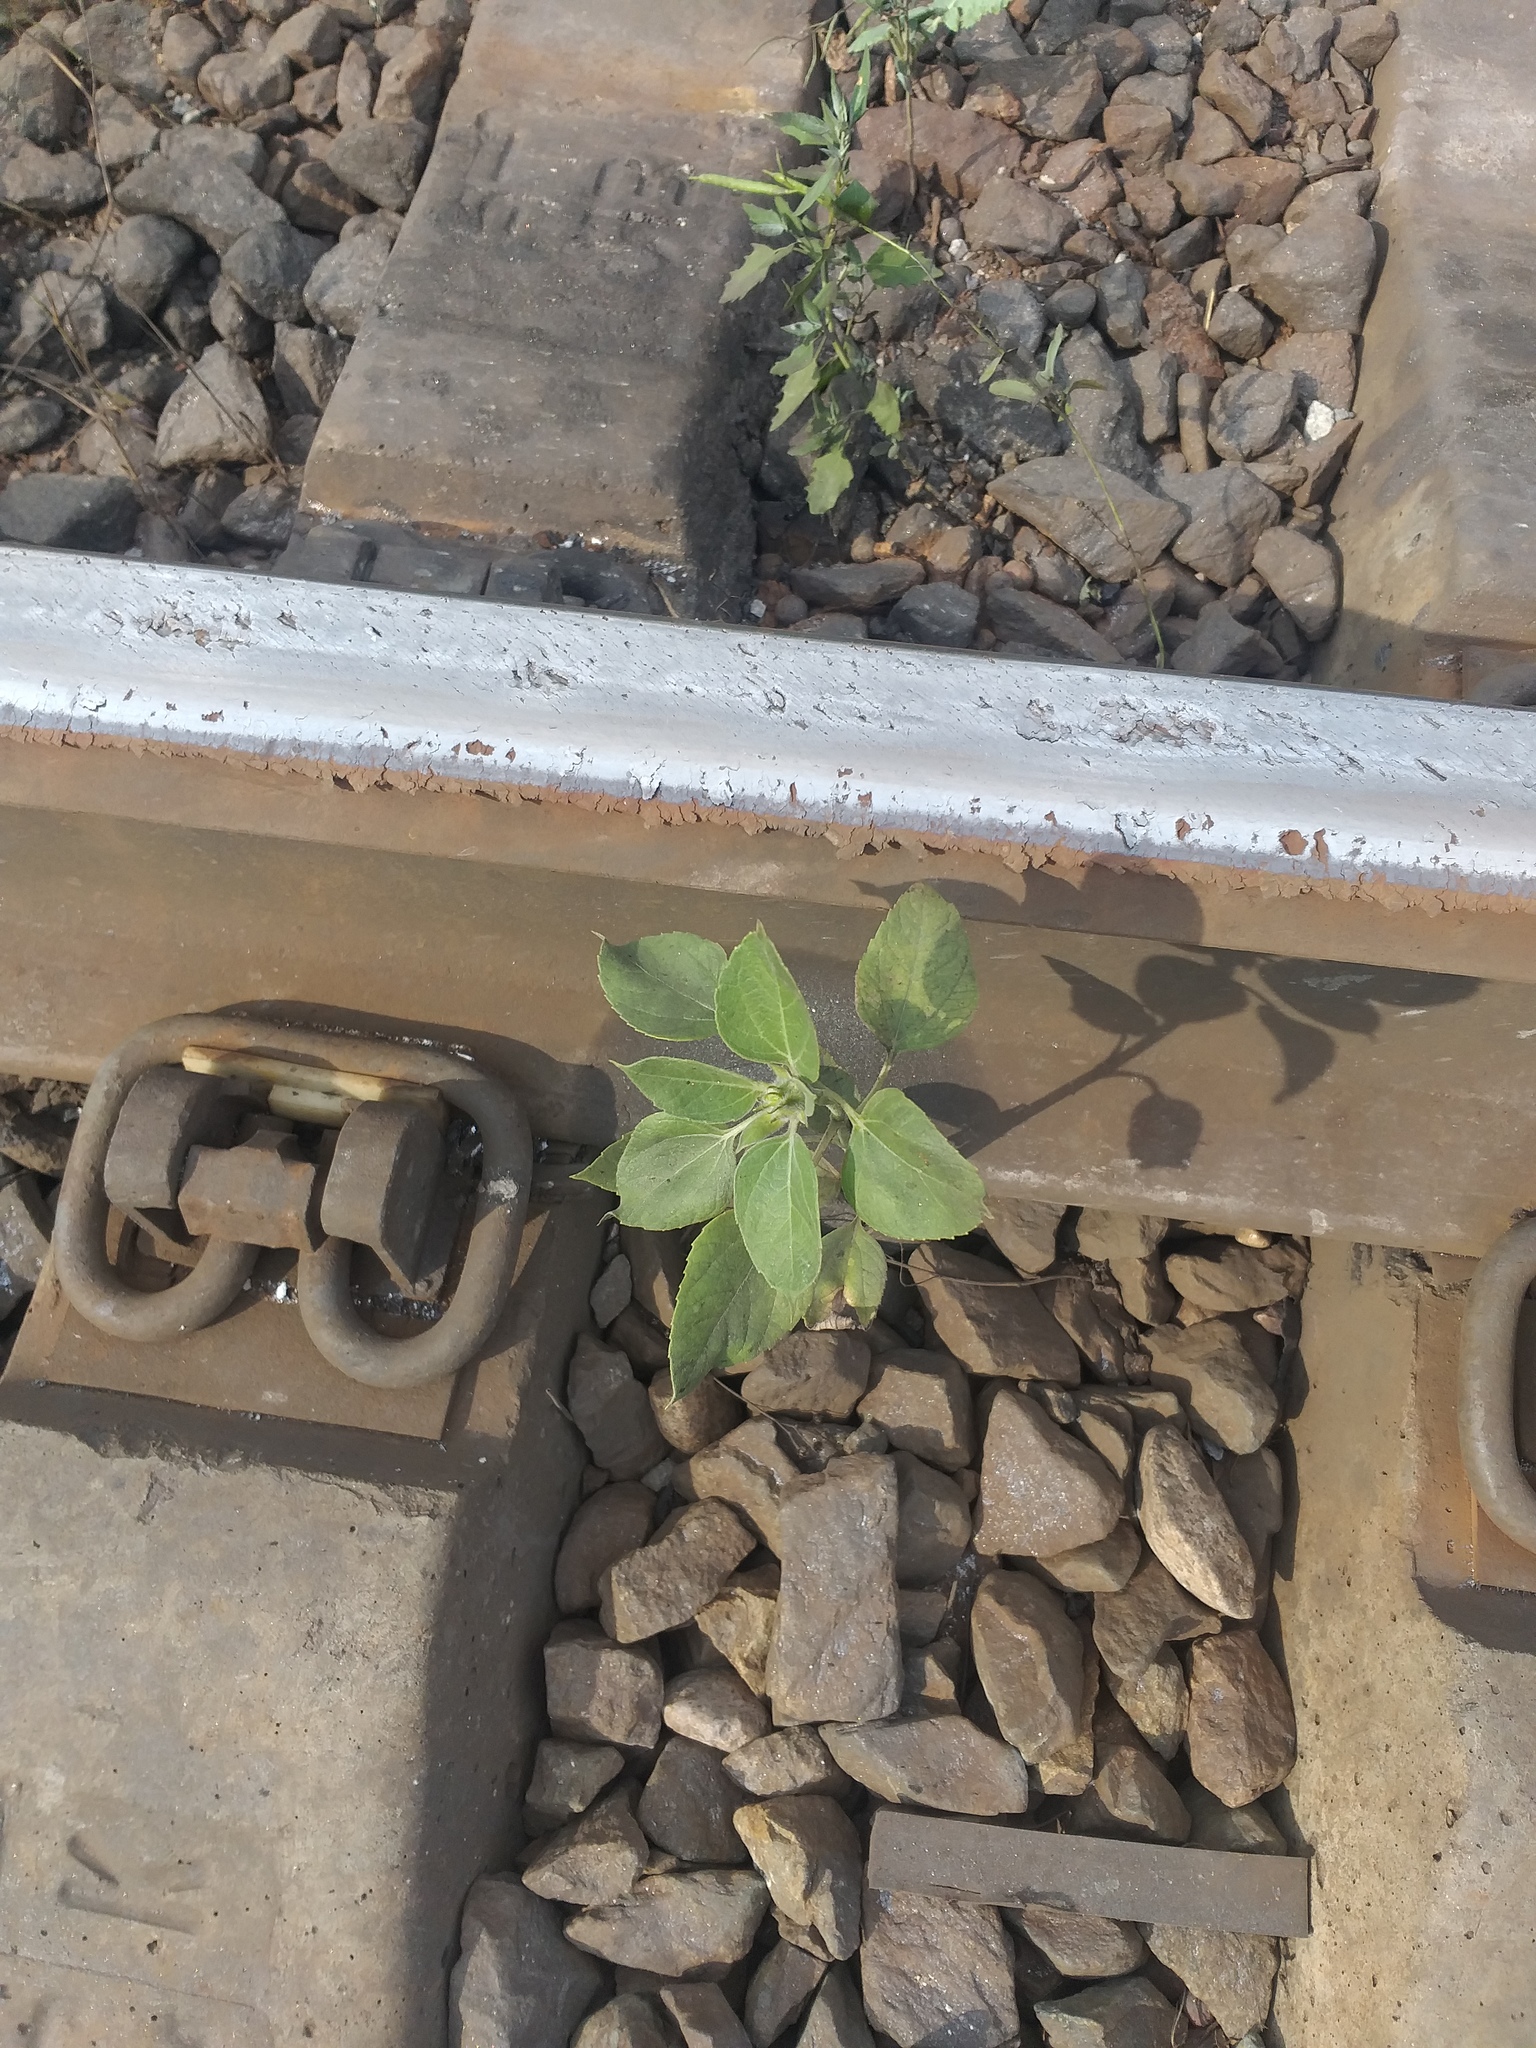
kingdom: Plantae
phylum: Tracheophyta
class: Magnoliopsida
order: Asterales
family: Asteraceae
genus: Helianthus
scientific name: Helianthus annuus
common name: Sunflower
